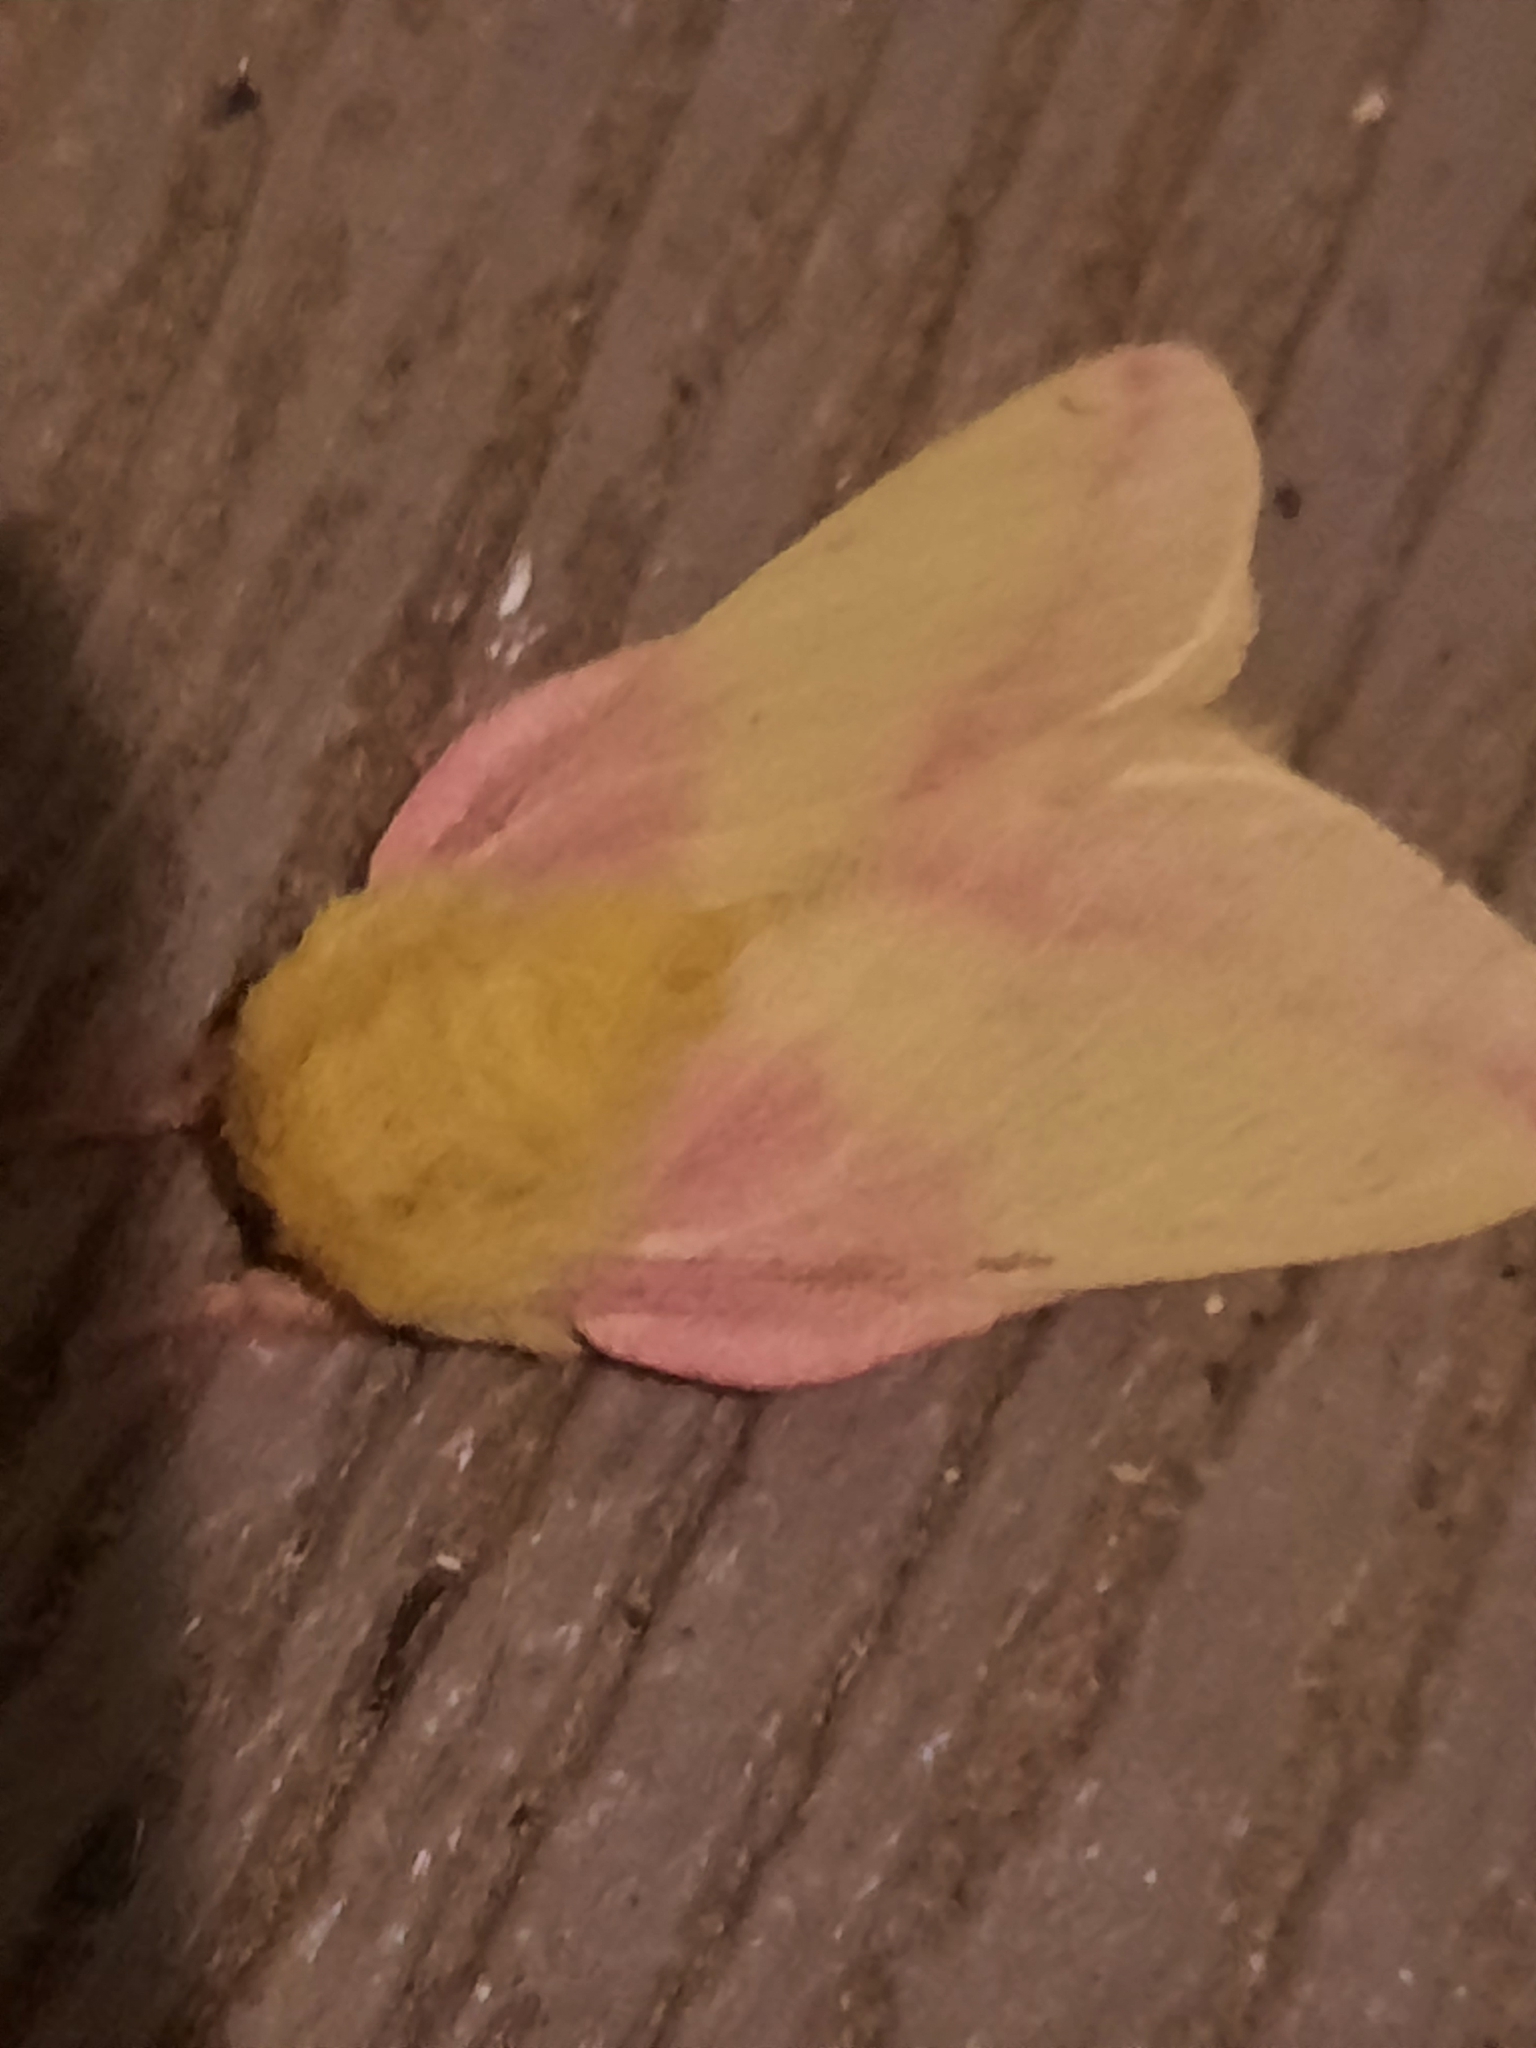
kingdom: Animalia
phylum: Arthropoda
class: Insecta
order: Lepidoptera
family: Saturniidae
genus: Dryocampa
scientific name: Dryocampa rubicunda
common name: Rosy maple moth
